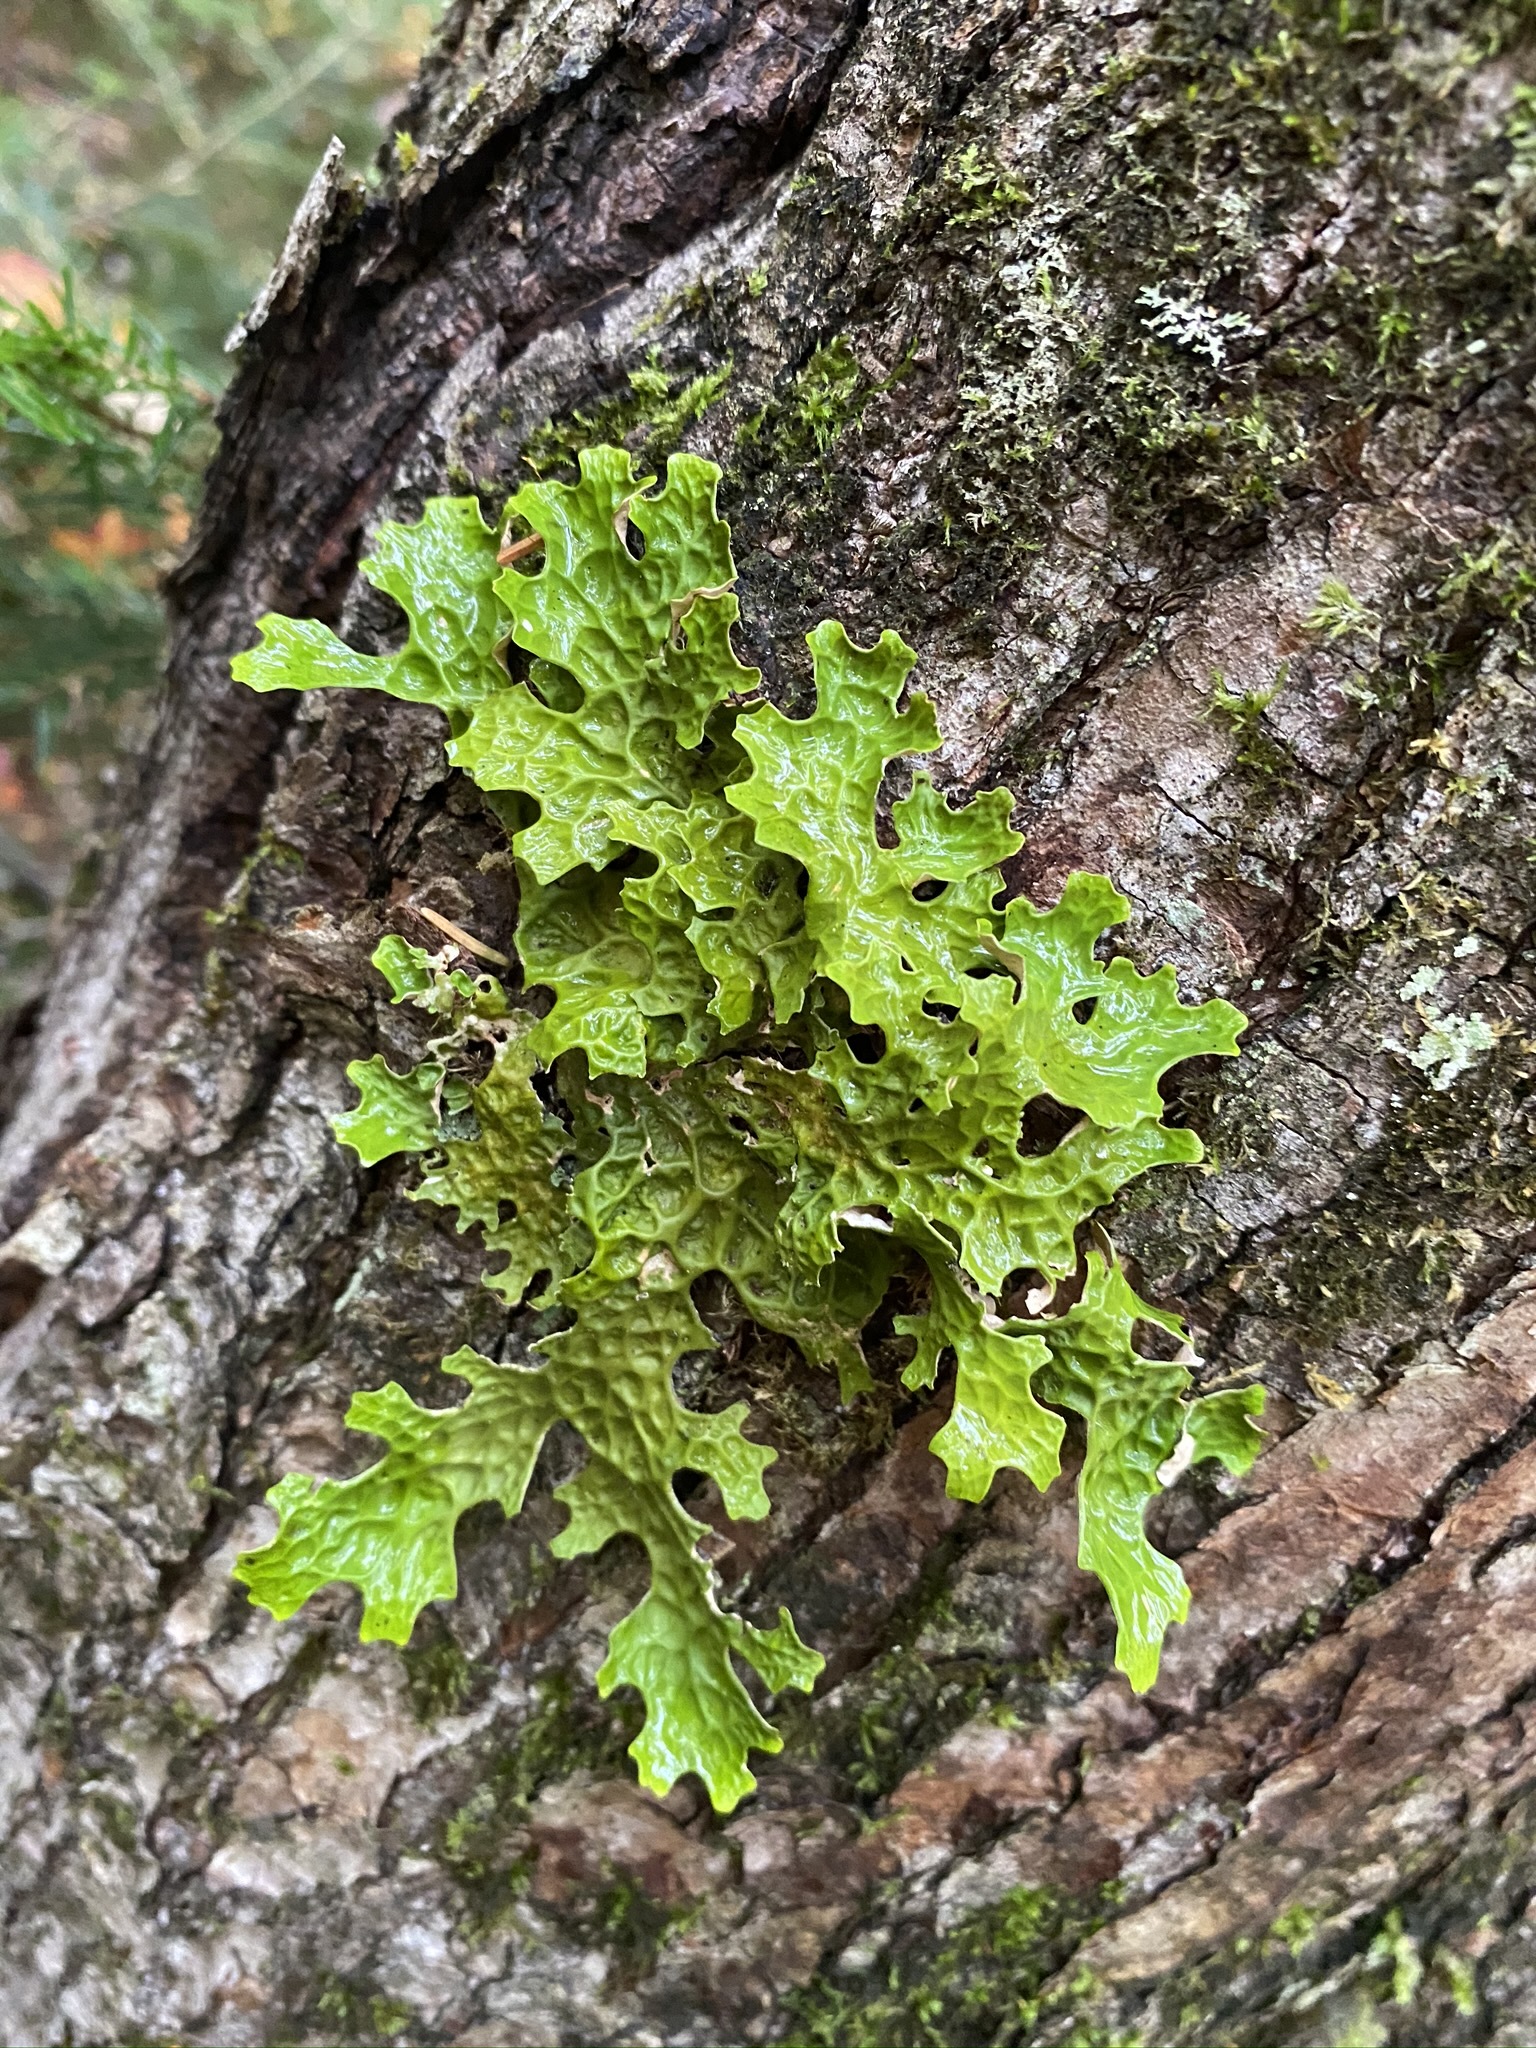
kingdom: Fungi
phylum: Ascomycota
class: Lecanoromycetes
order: Peltigerales
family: Lobariaceae
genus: Lobaria
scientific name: Lobaria pulmonaria
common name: Lungwort
